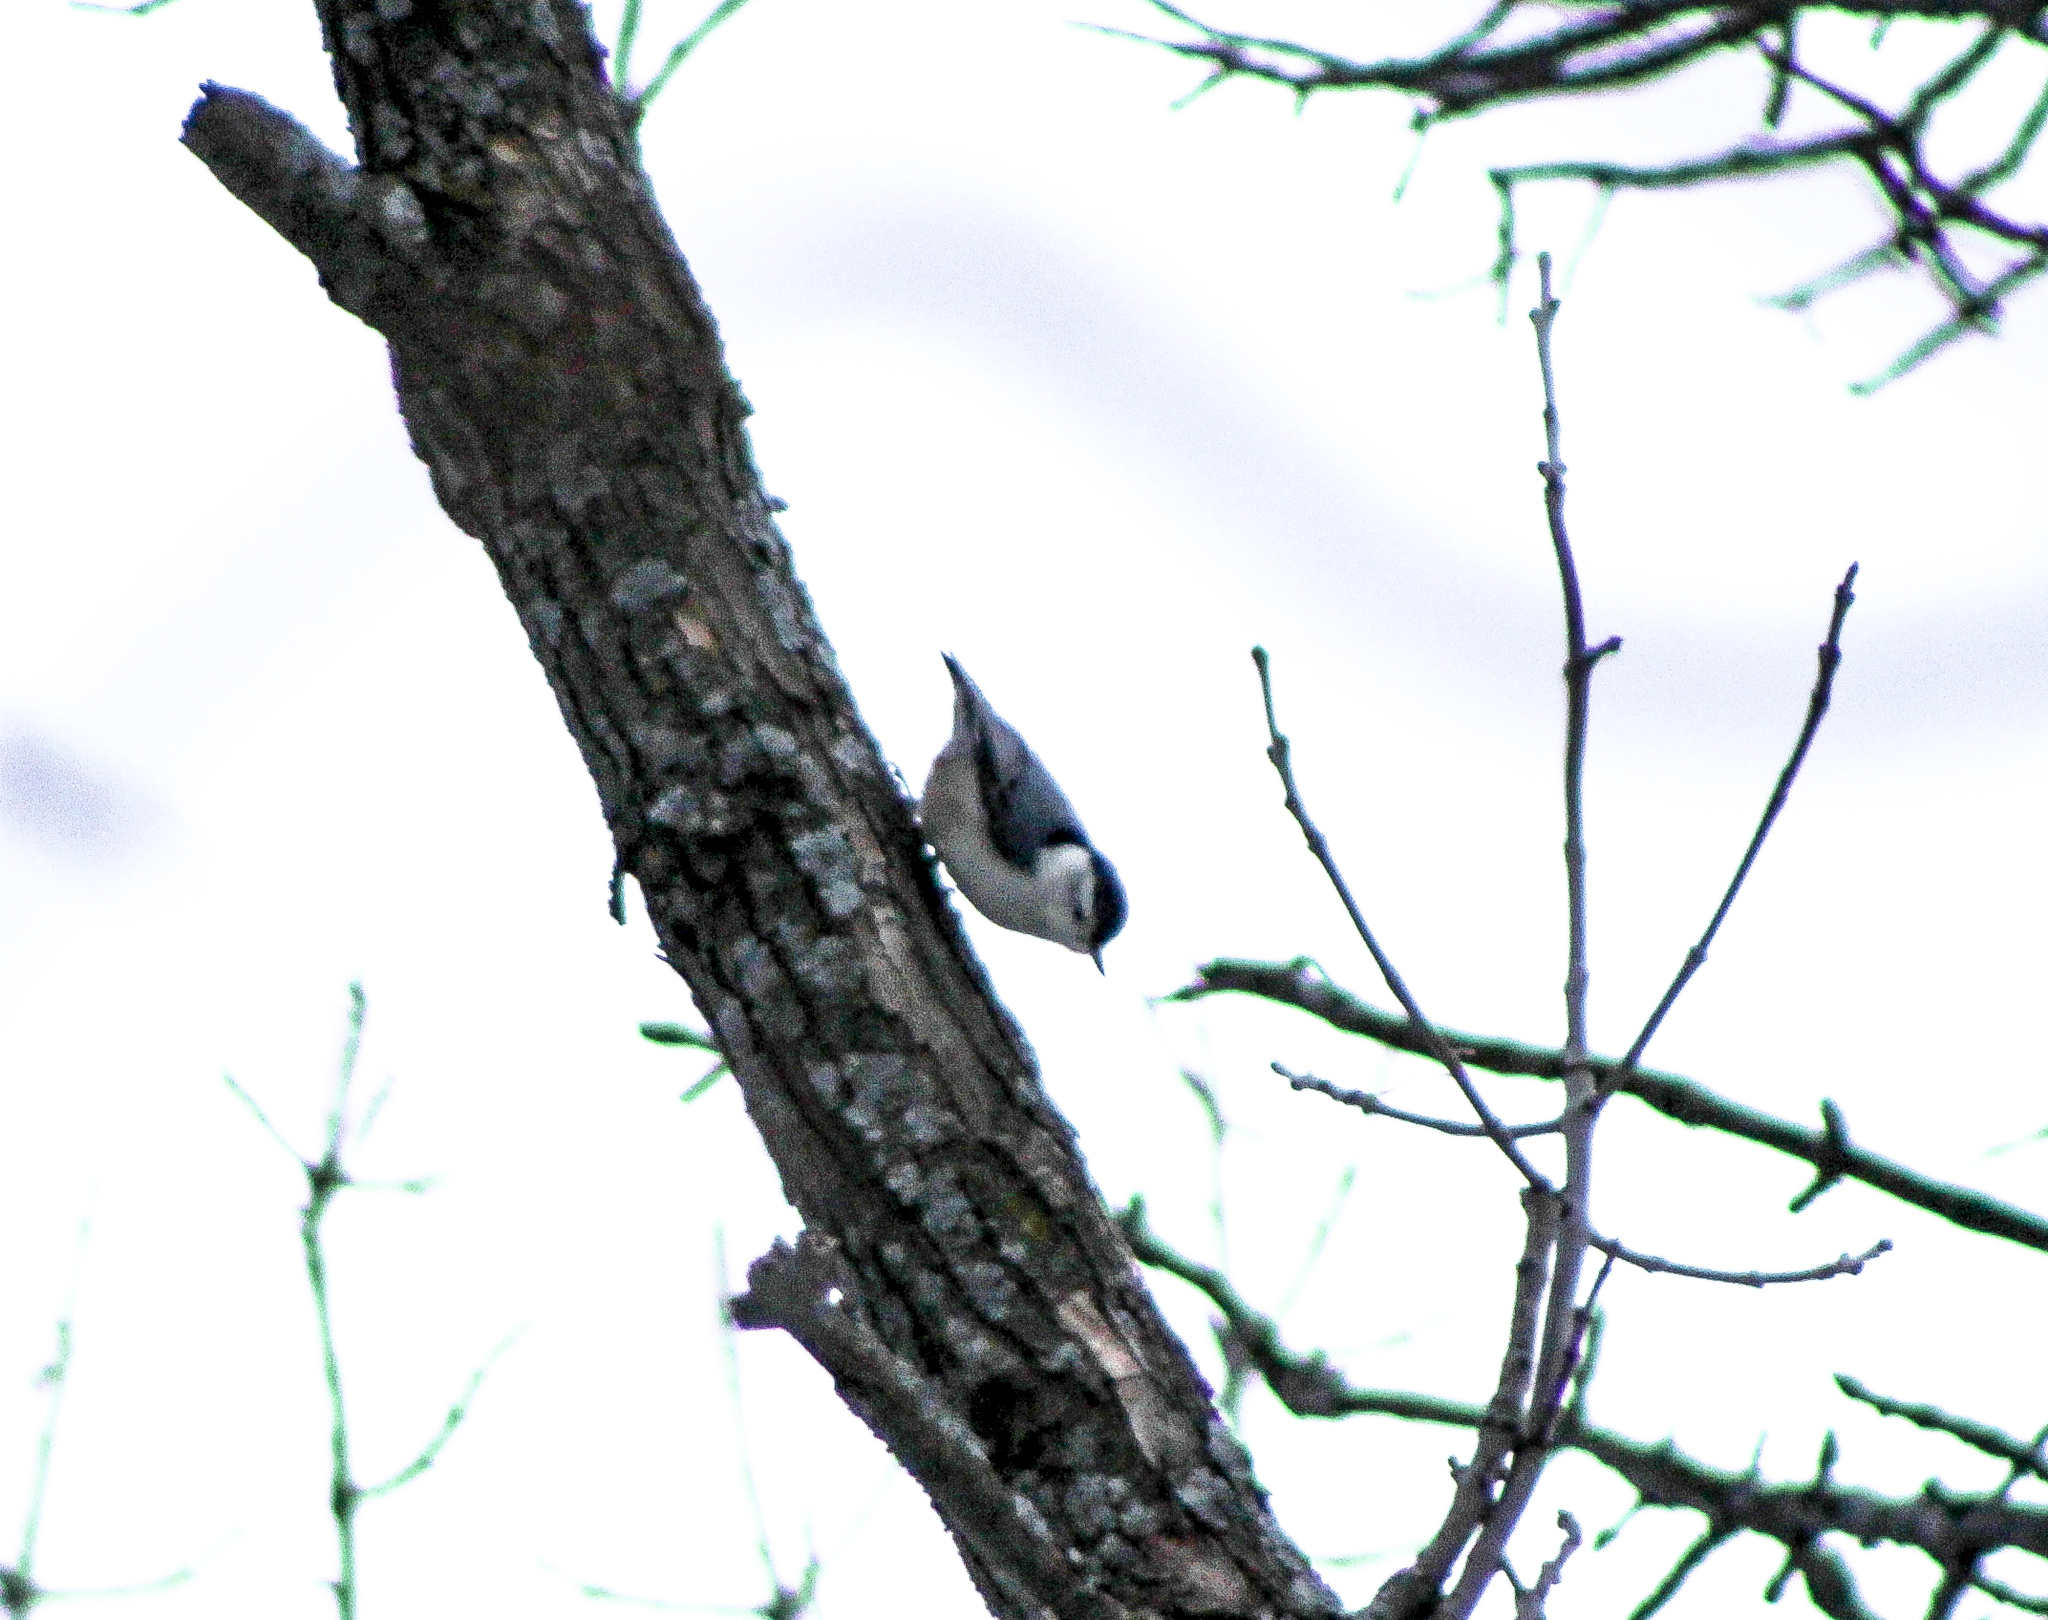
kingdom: Animalia
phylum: Chordata
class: Aves
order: Passeriformes
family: Sittidae
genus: Sitta
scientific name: Sitta carolinensis
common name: White-breasted nuthatch
